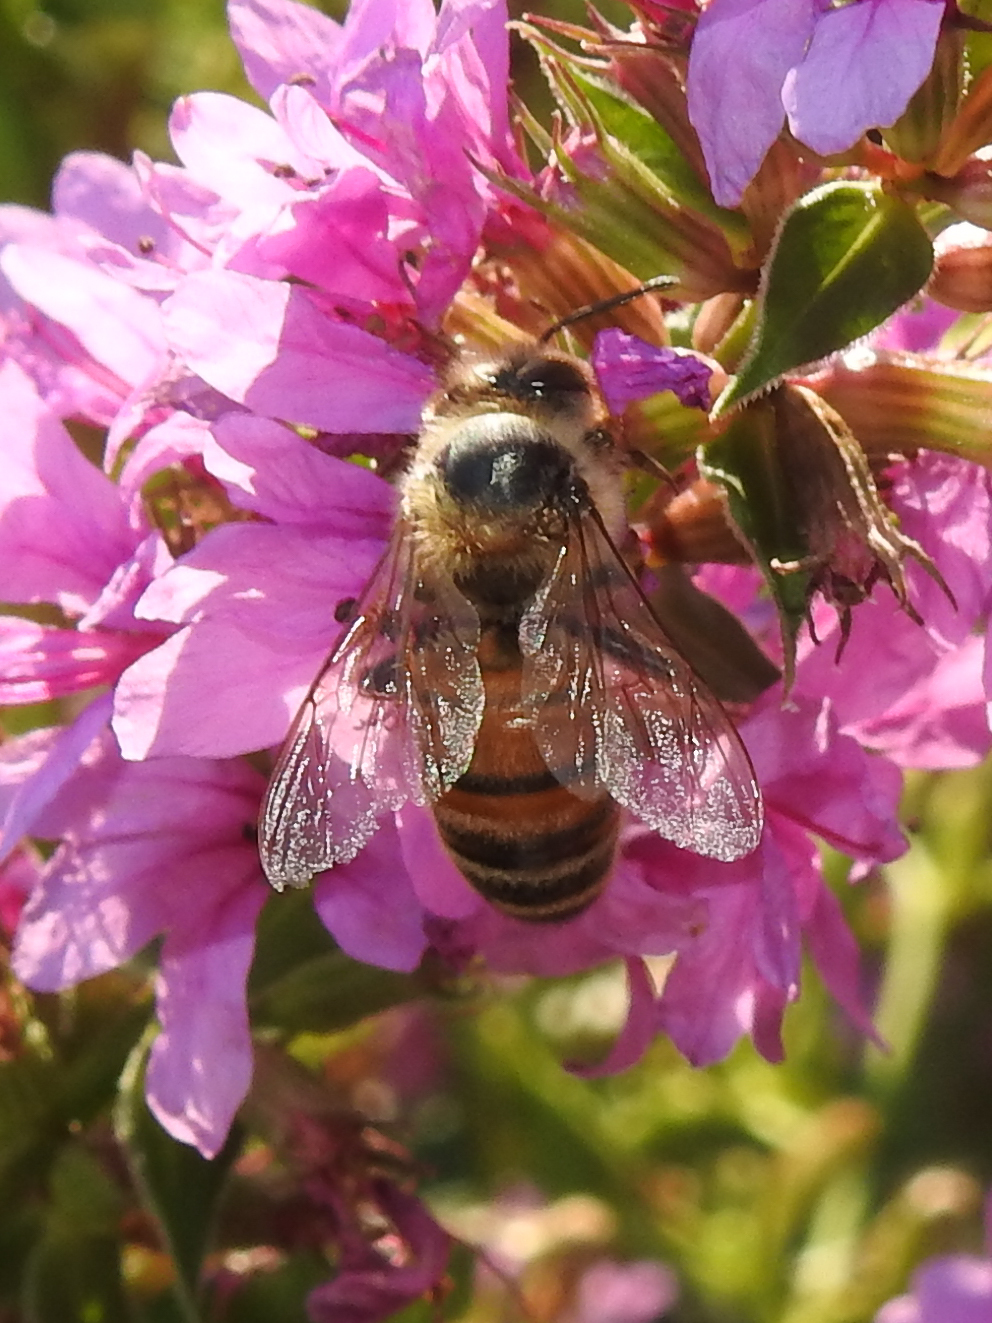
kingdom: Animalia
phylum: Arthropoda
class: Insecta
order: Hymenoptera
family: Apidae
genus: Apis
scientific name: Apis mellifera
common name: Honey bee
